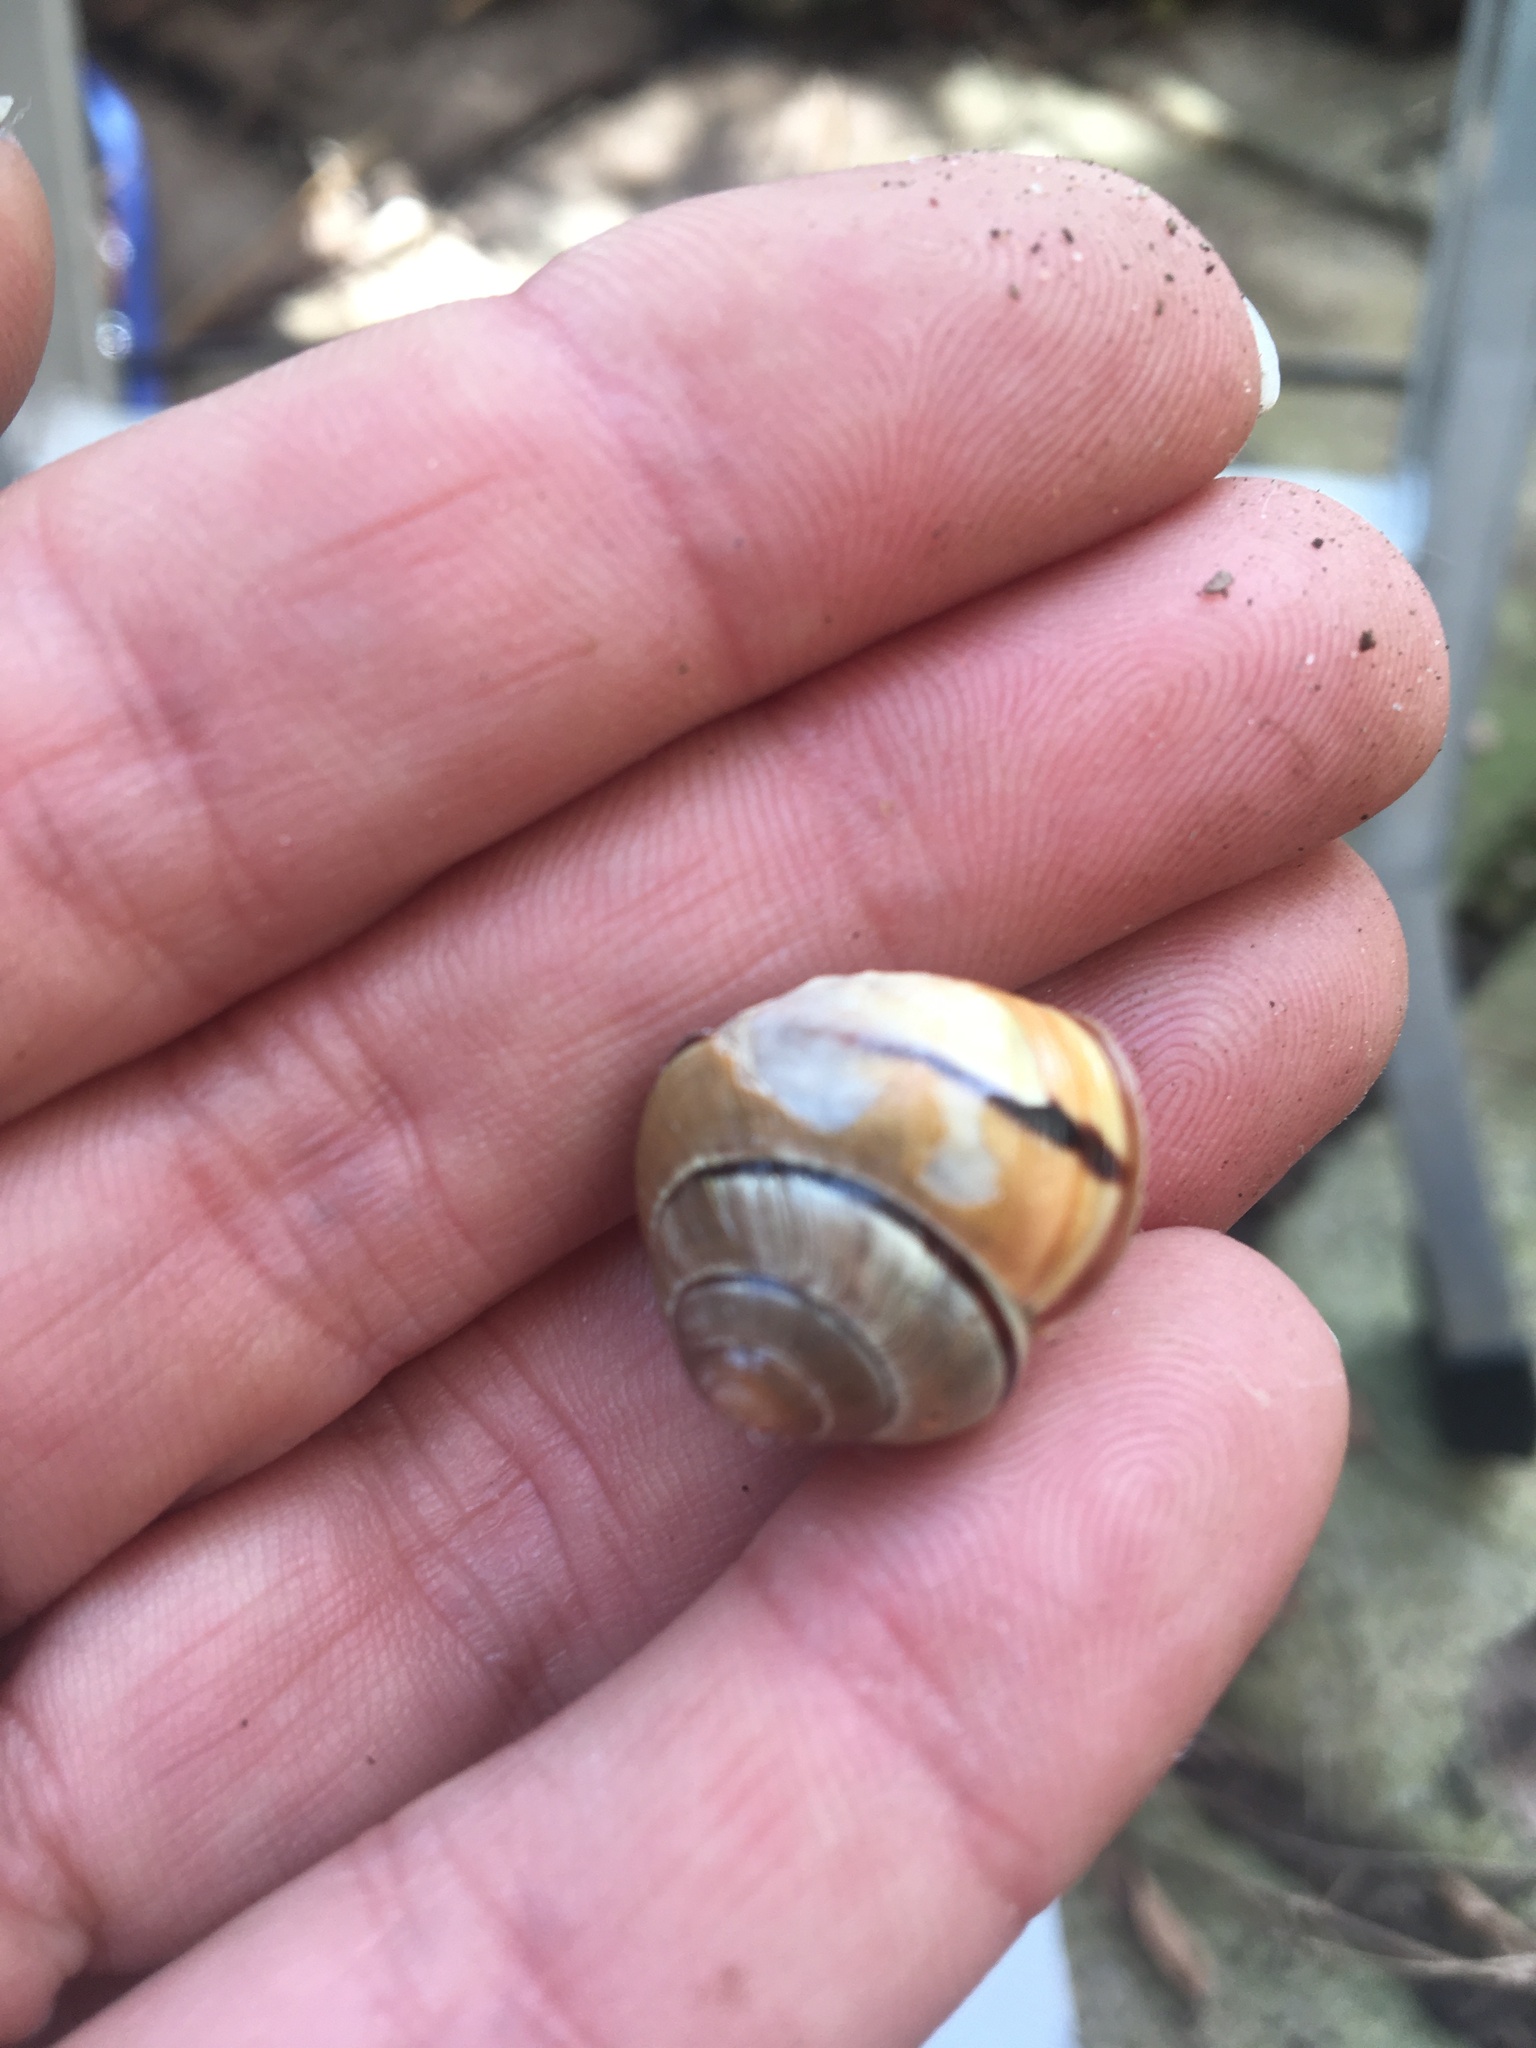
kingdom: Animalia
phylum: Mollusca
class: Gastropoda
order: Stylommatophora
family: Helicidae
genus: Cepaea
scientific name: Cepaea nemoralis
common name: Grovesnail
